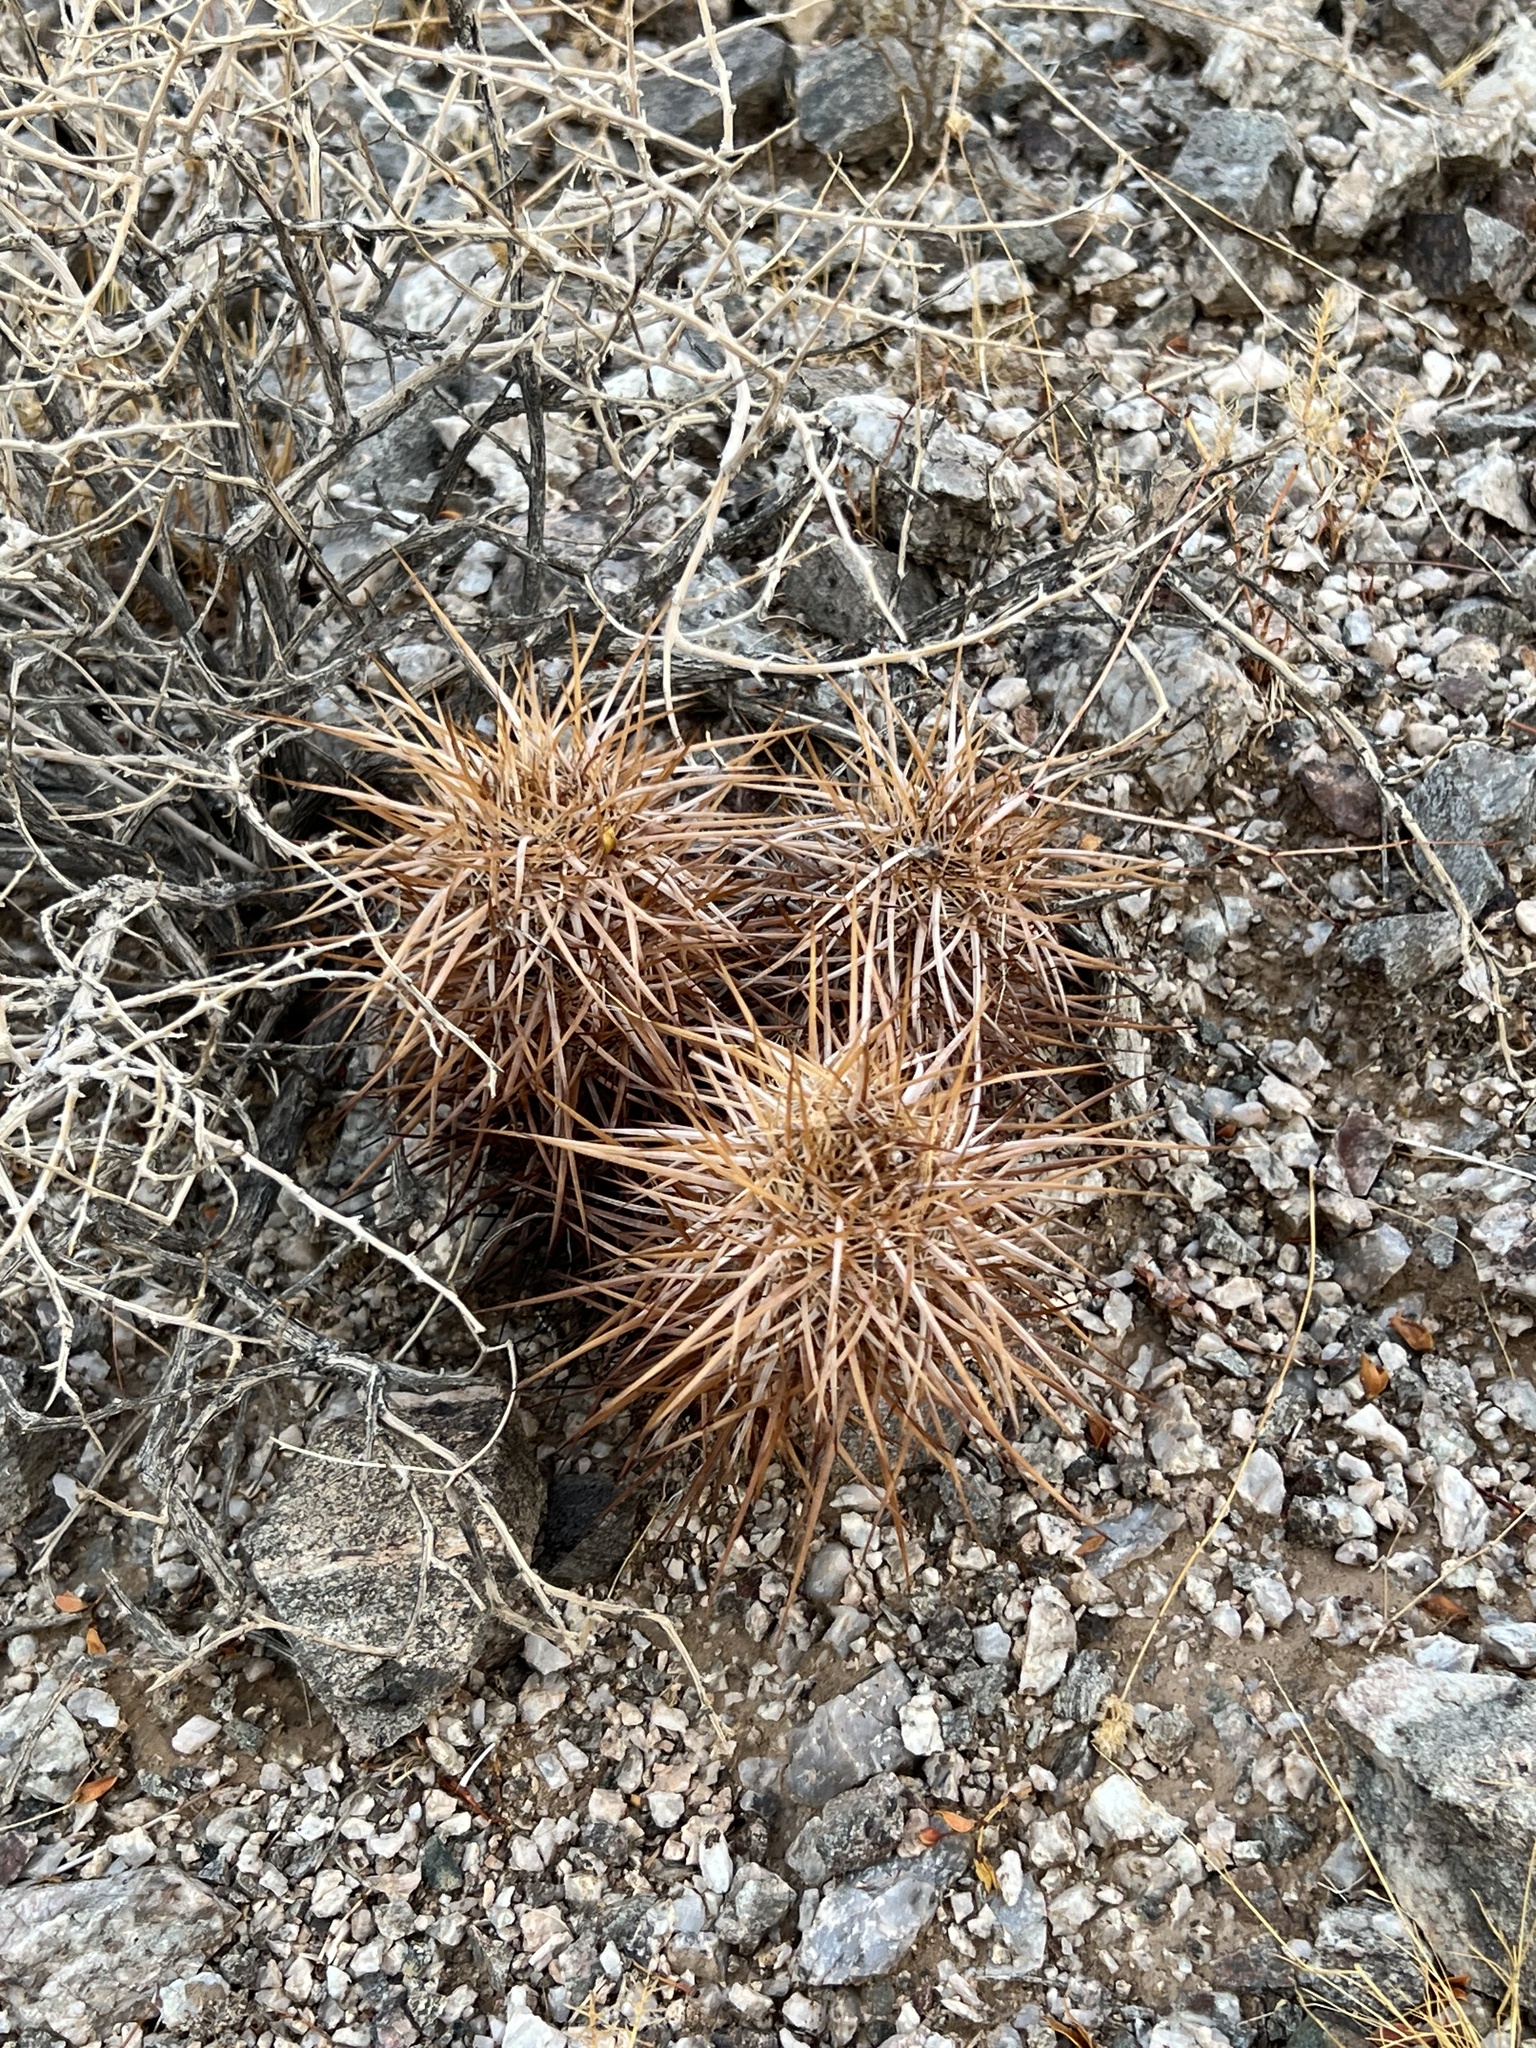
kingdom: Plantae
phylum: Tracheophyta
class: Magnoliopsida
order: Caryophyllales
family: Cactaceae
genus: Echinocereus
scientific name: Echinocereus engelmannii
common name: Engelmann's hedgehog cactus
